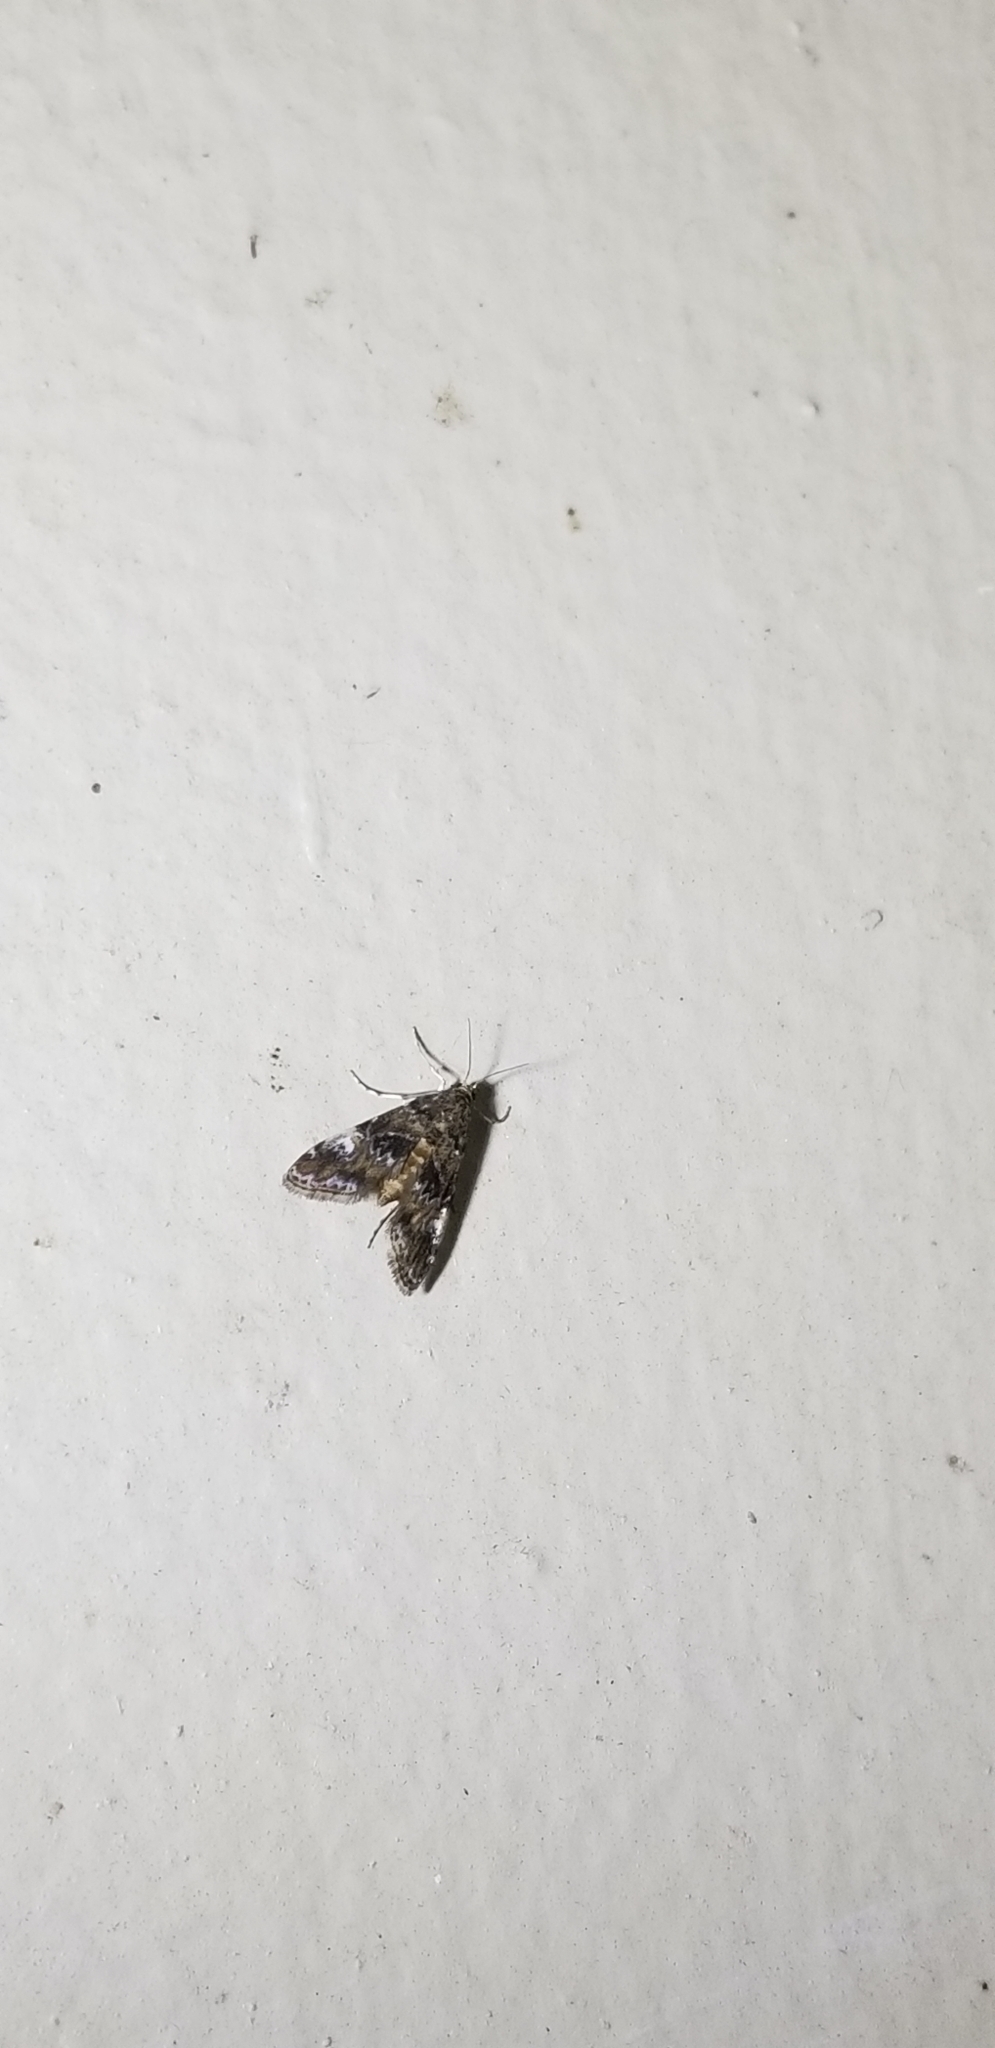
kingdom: Animalia
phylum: Arthropoda
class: Insecta
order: Lepidoptera
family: Crambidae
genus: Elophila
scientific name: Elophila obliteralis
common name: Waterlily leafcutter moth
